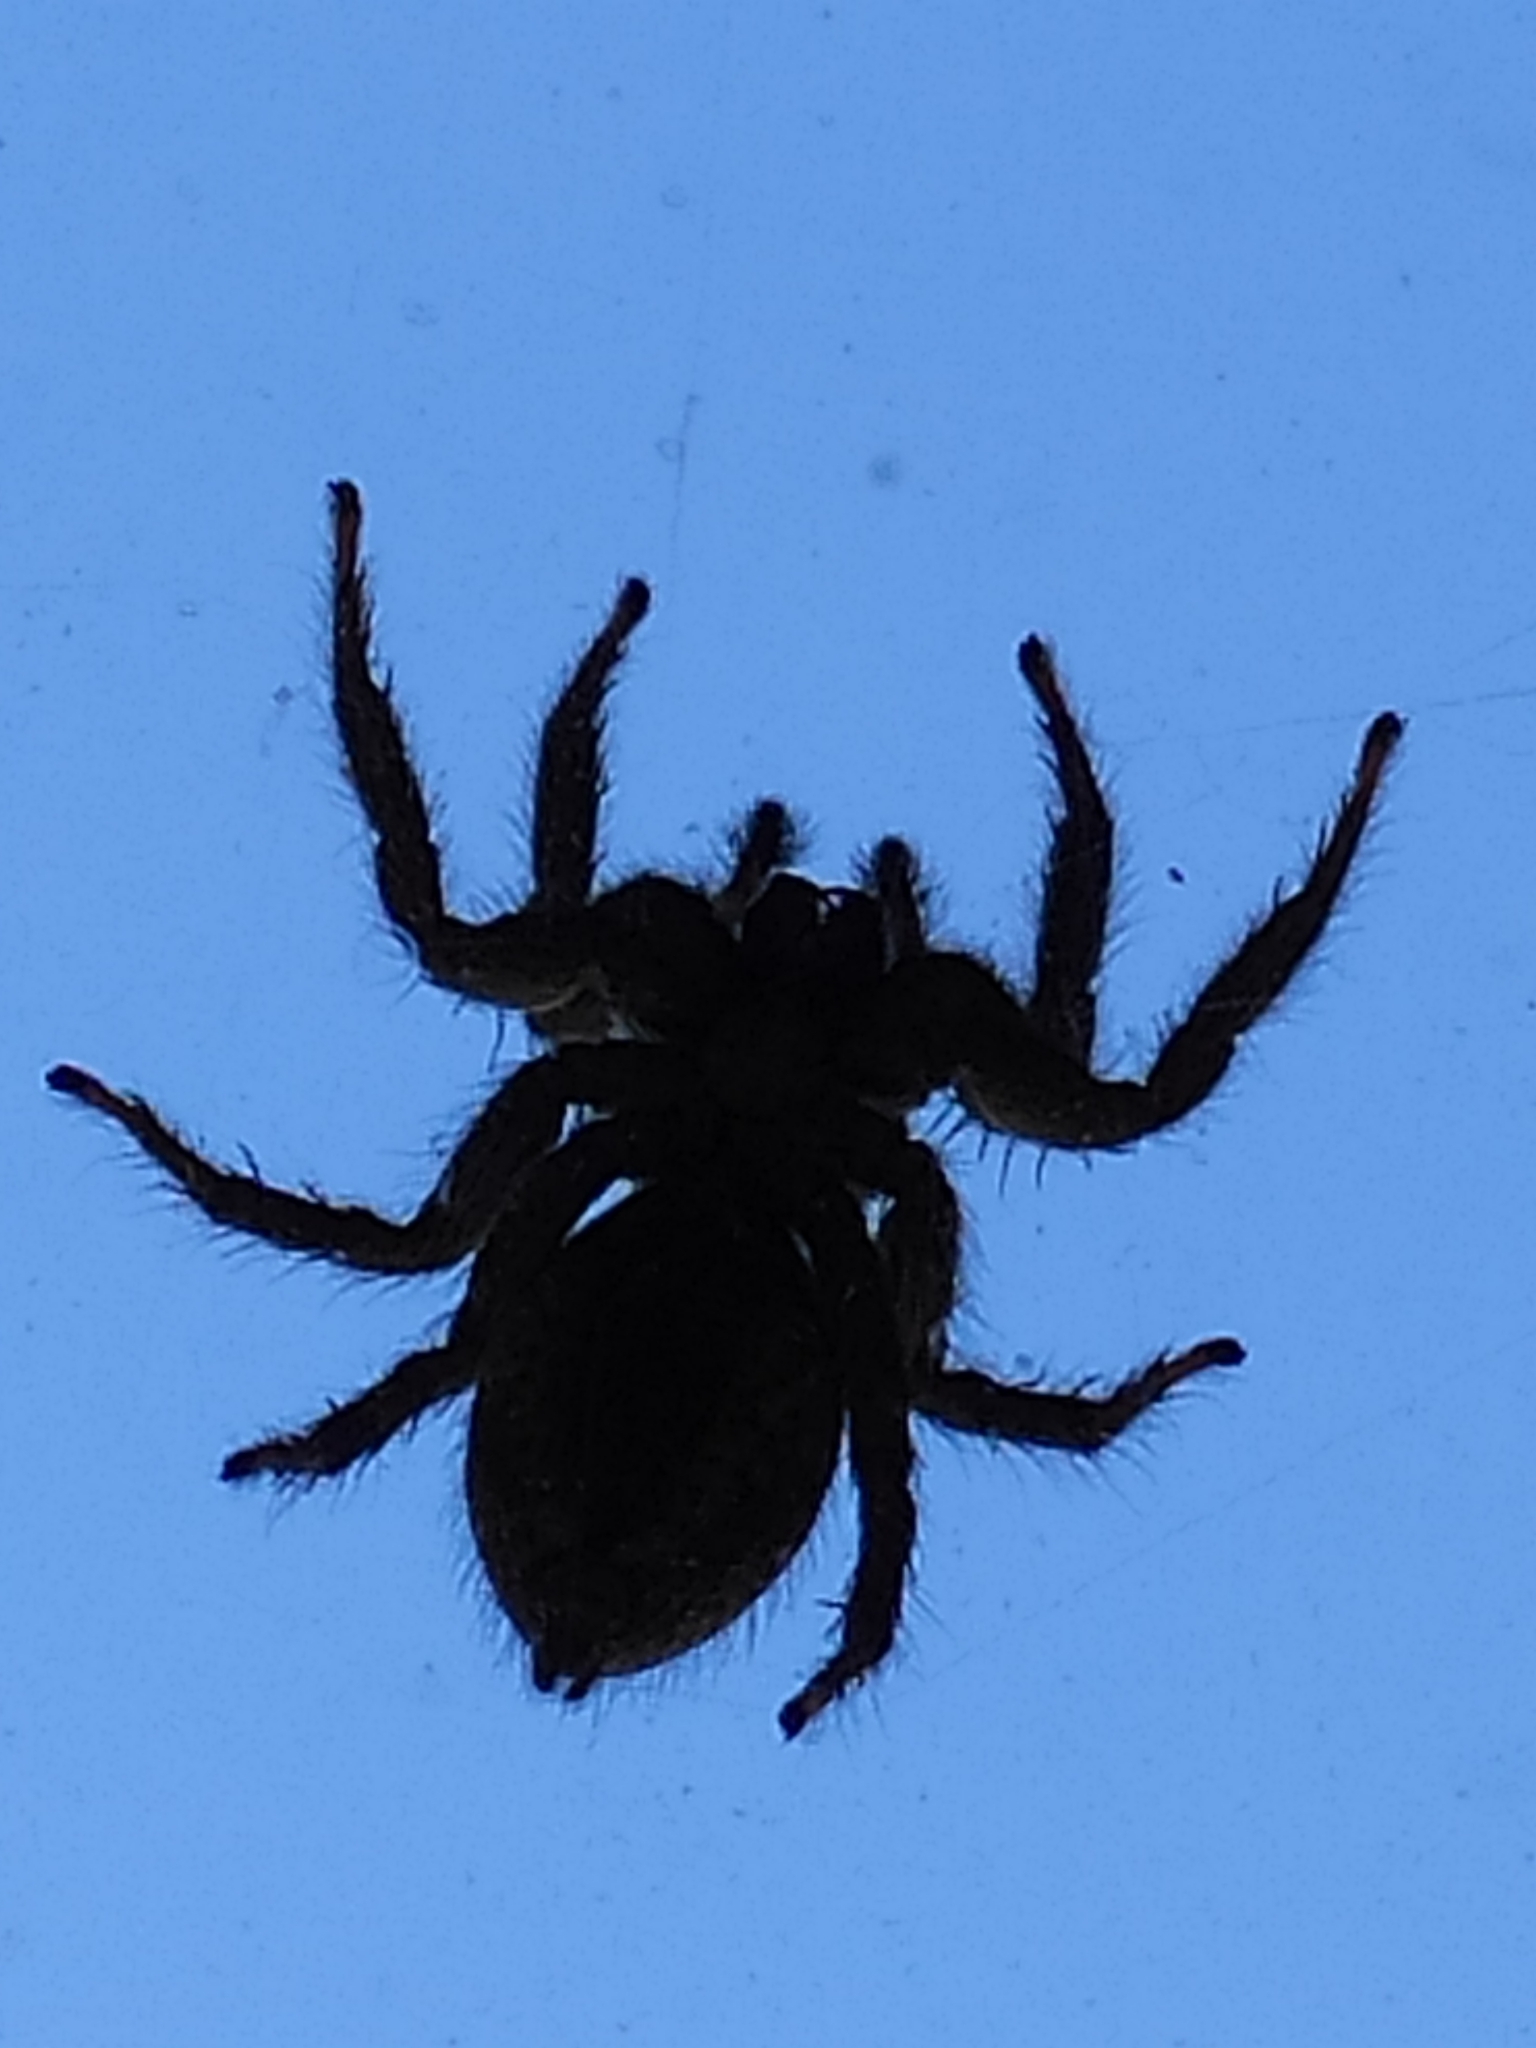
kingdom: Animalia
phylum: Arthropoda
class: Arachnida
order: Araneae
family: Salticidae
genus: Menemerus
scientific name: Menemerus bivittatus
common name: Gray wall jumper
